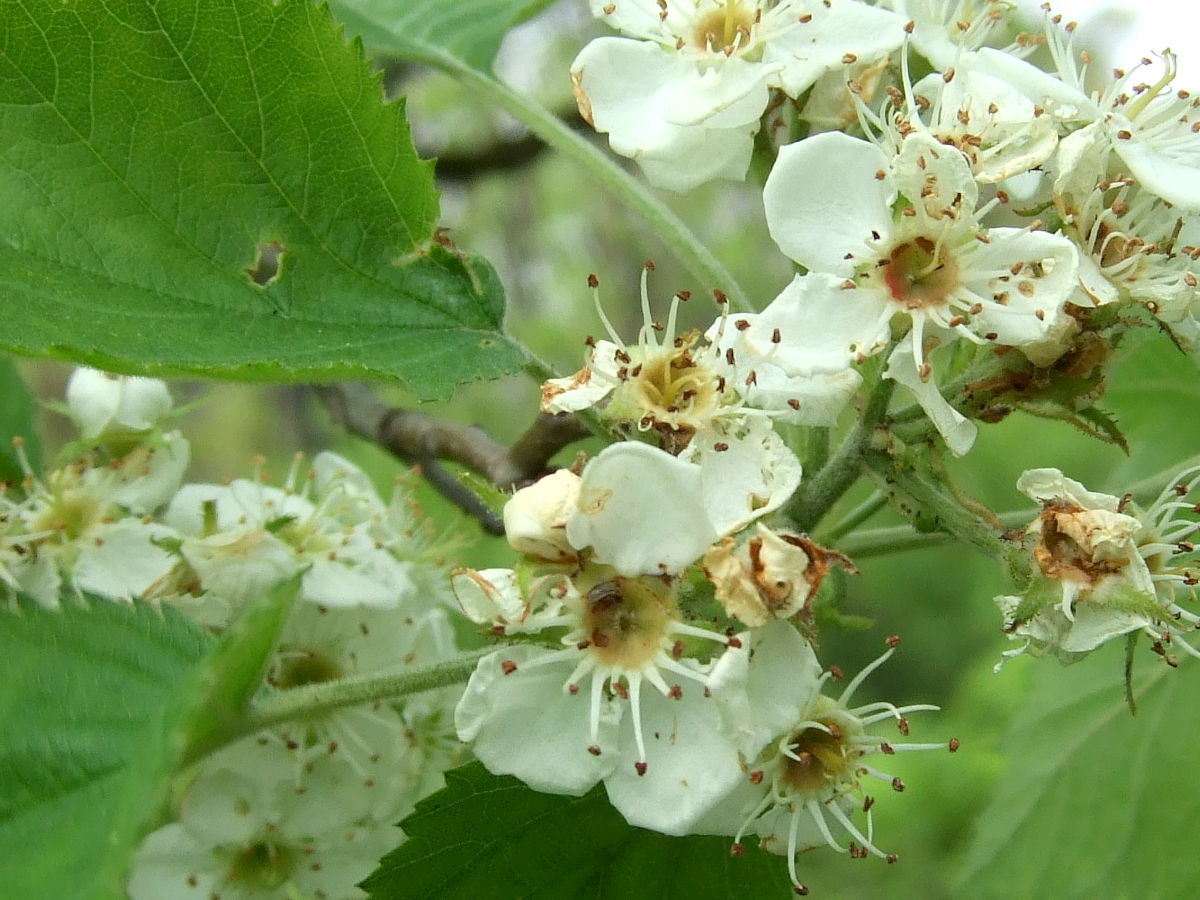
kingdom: Plantae
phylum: Tracheophyta
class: Magnoliopsida
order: Rosales
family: Rosaceae
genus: Crataegus
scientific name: Crataegus mollis
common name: Downy hawthorn
